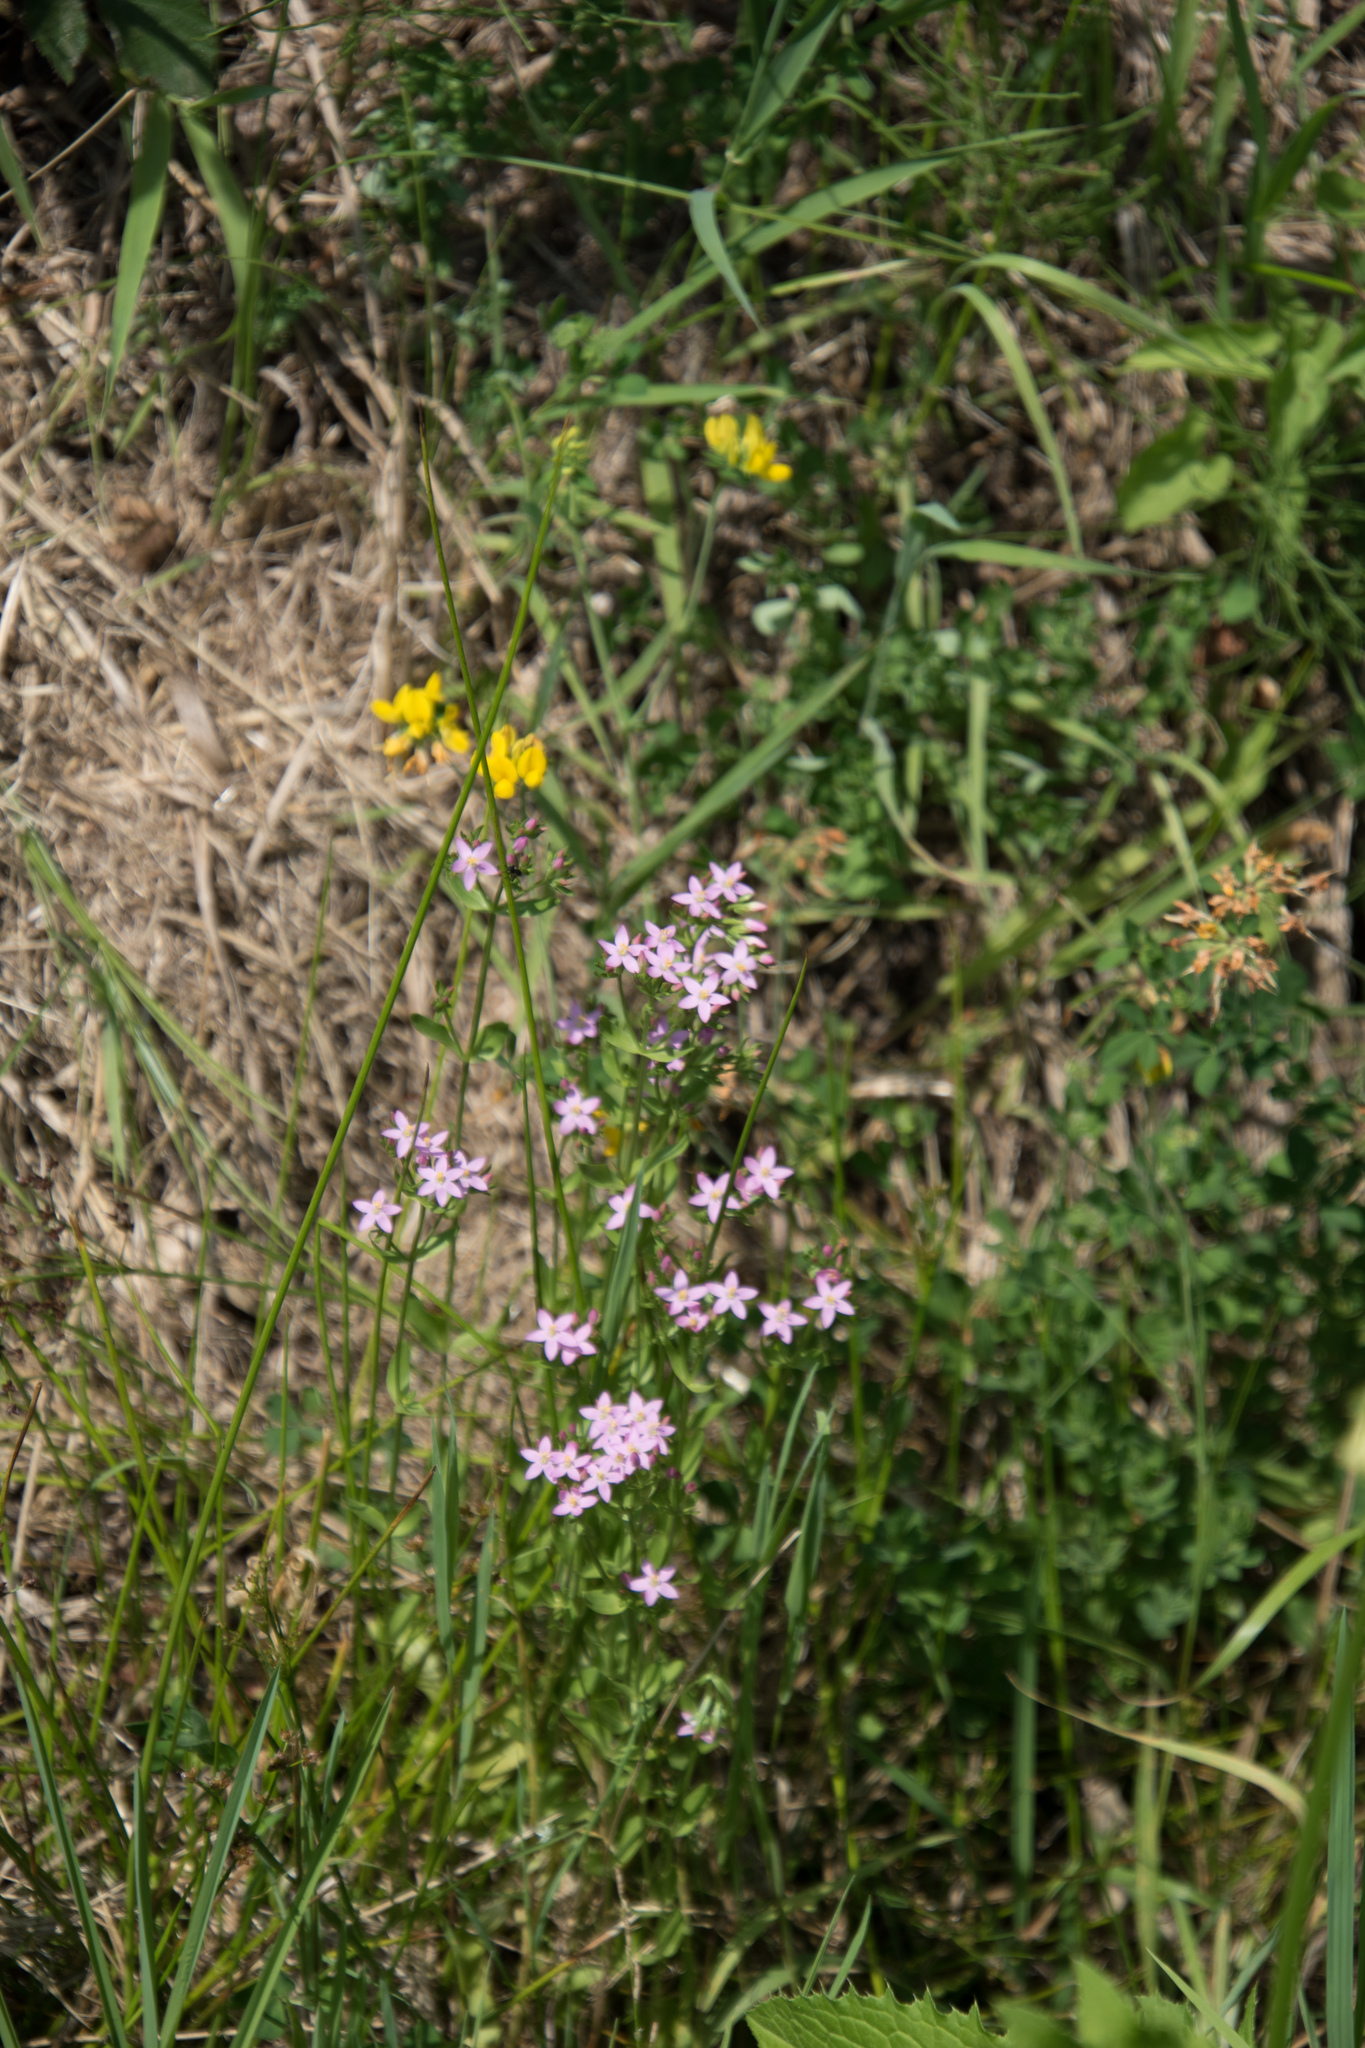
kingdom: Plantae
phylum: Tracheophyta
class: Magnoliopsida
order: Gentianales
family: Gentianaceae
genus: Centaurium
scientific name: Centaurium erythraea
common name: Common centaury
